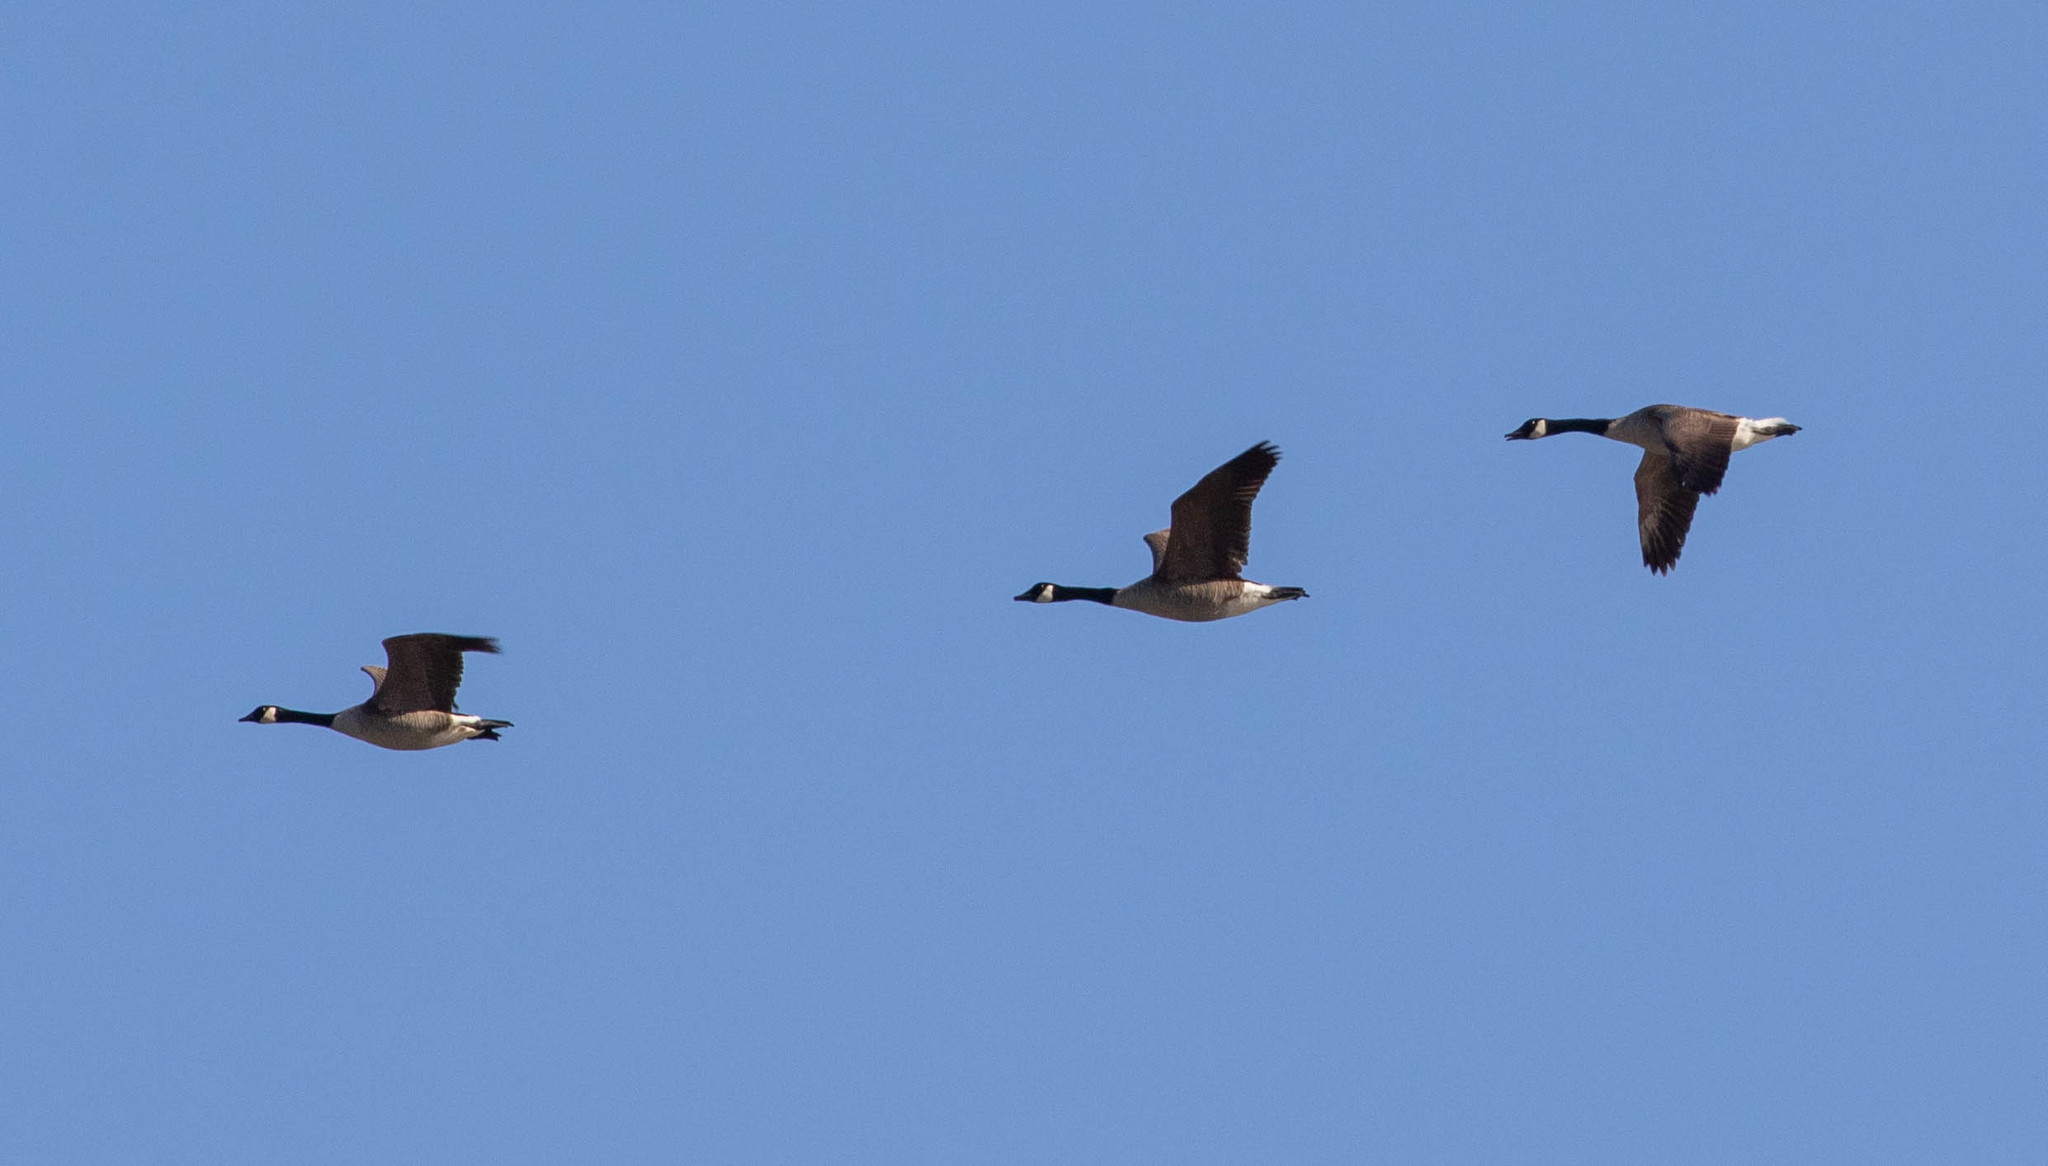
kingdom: Animalia
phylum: Chordata
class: Aves
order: Anseriformes
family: Anatidae
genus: Branta
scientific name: Branta canadensis
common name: Canada goose
